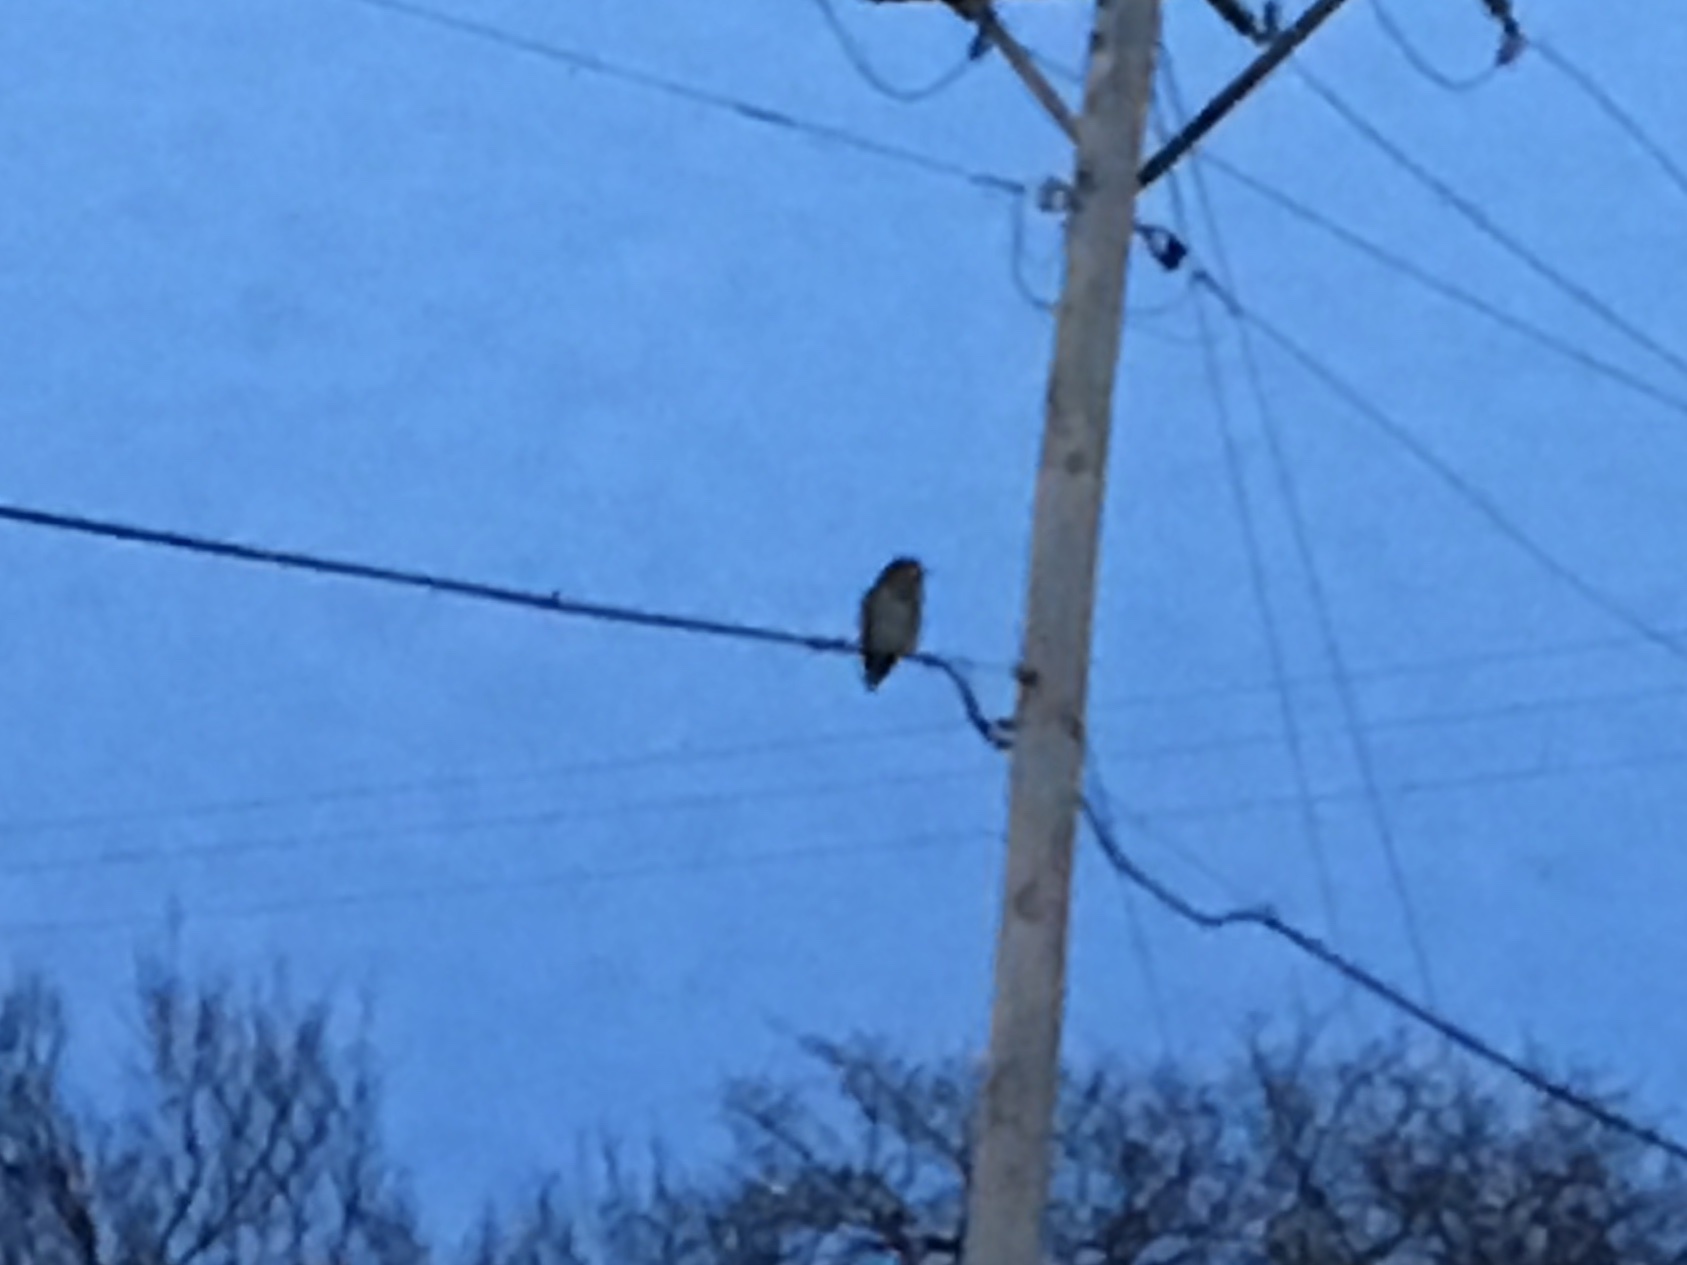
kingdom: Animalia
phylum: Chordata
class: Aves
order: Strigiformes
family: Strigidae
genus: Strix
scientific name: Strix varia
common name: Barred owl
